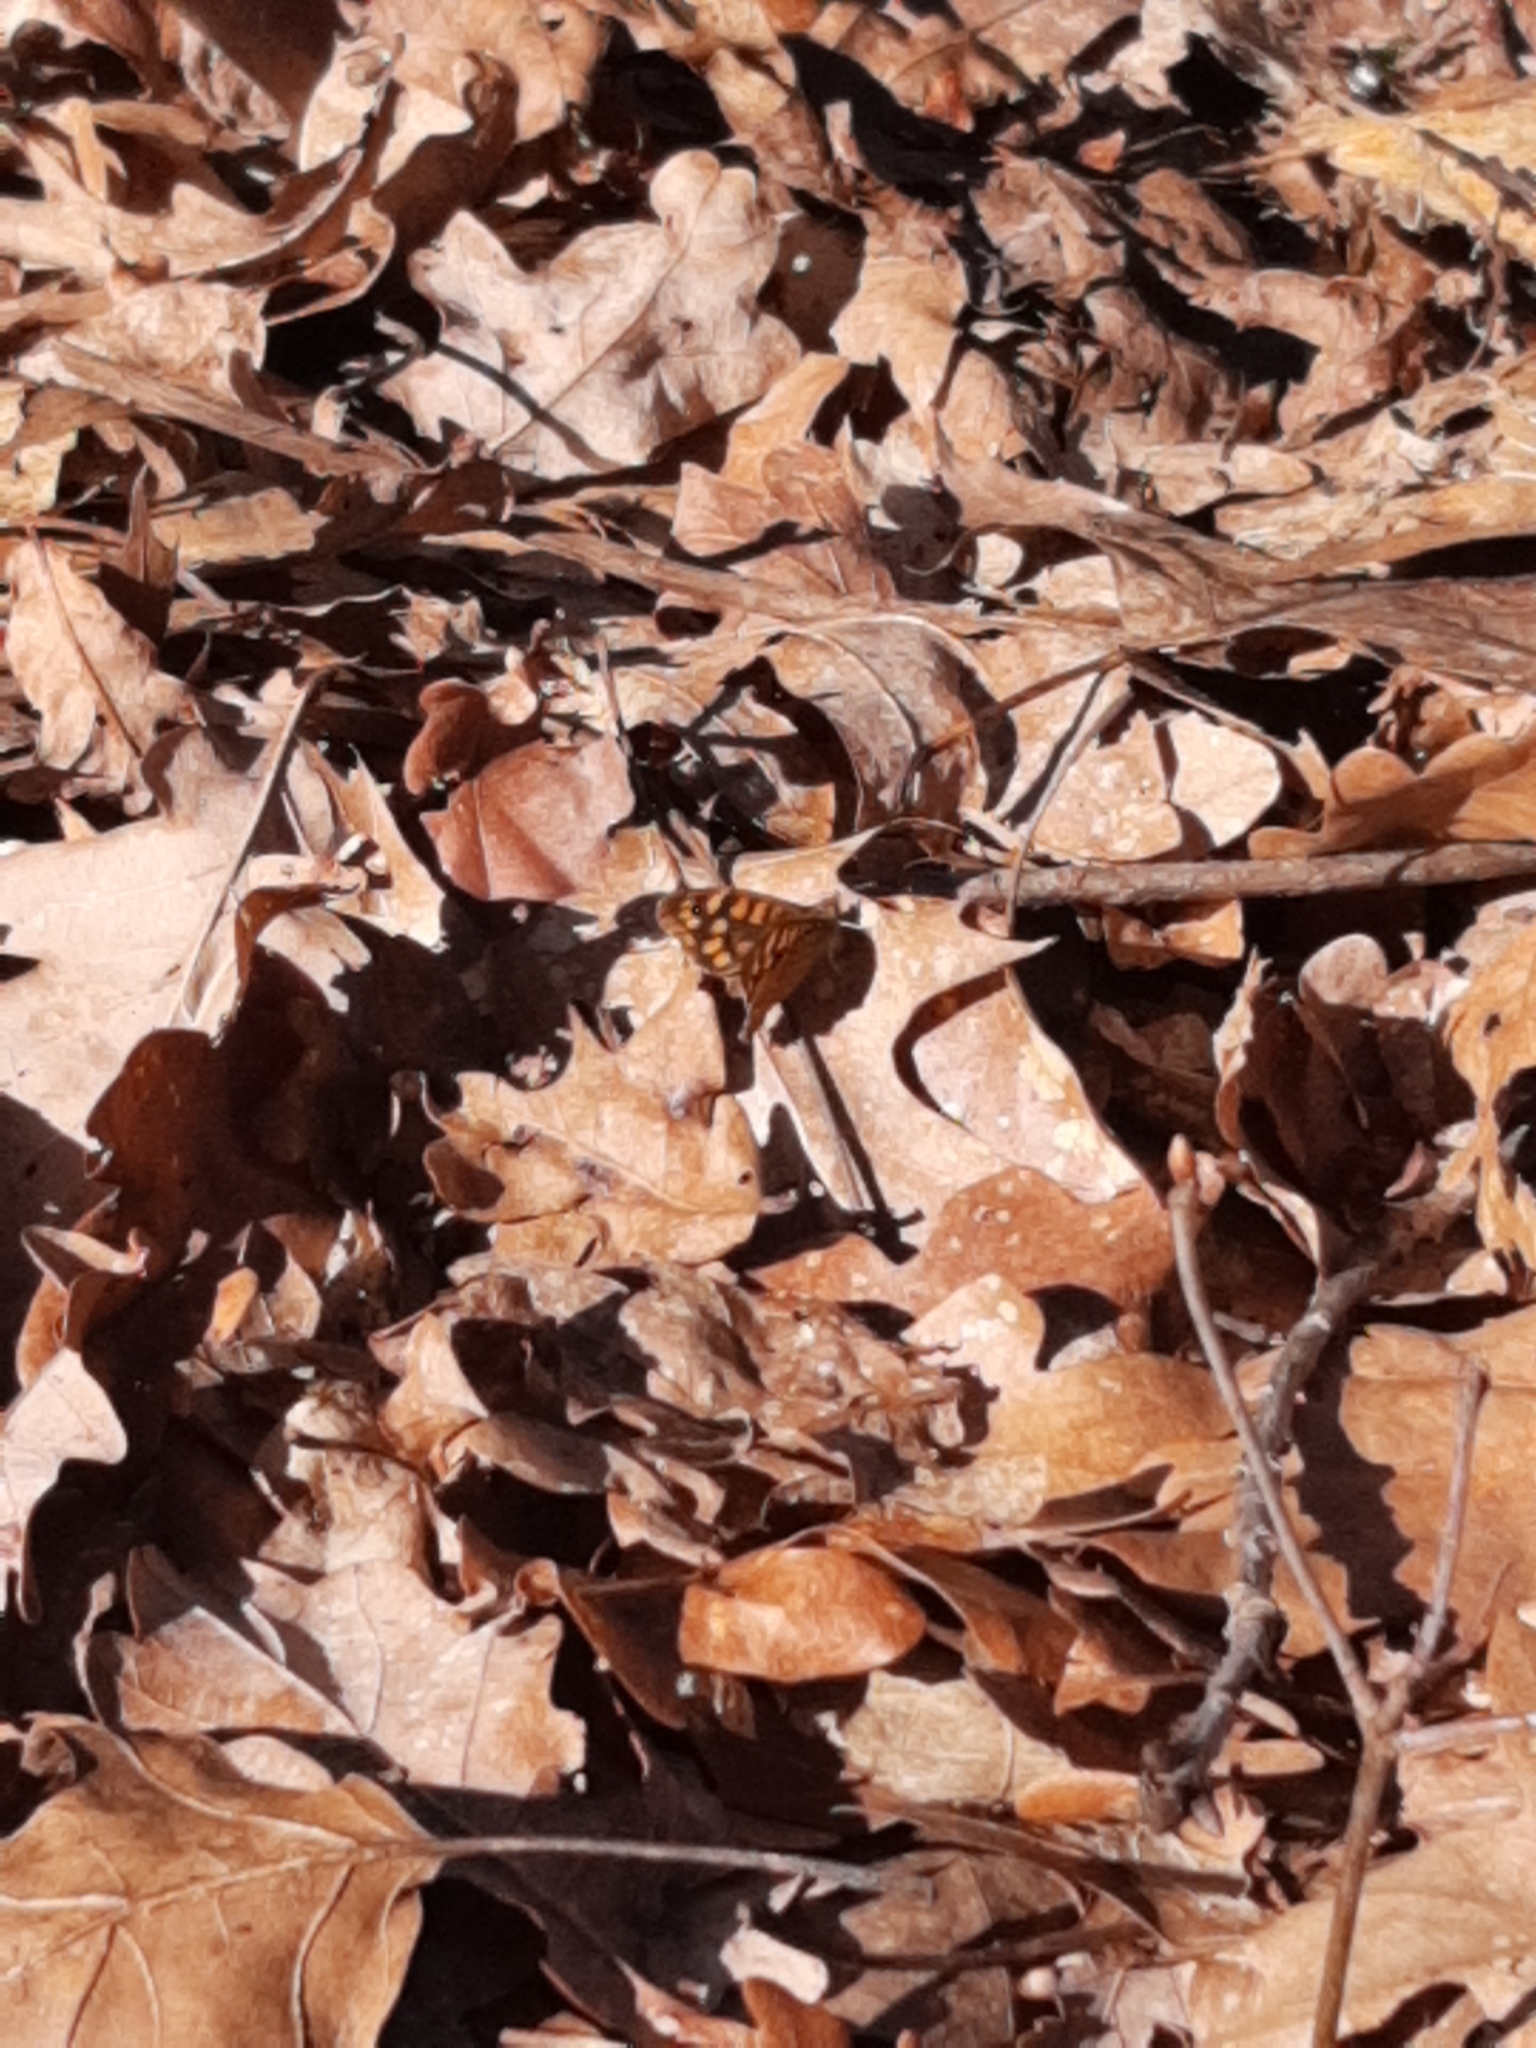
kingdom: Animalia
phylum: Arthropoda
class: Insecta
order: Lepidoptera
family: Nymphalidae
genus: Pararge
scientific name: Pararge aegeria
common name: Speckled wood
